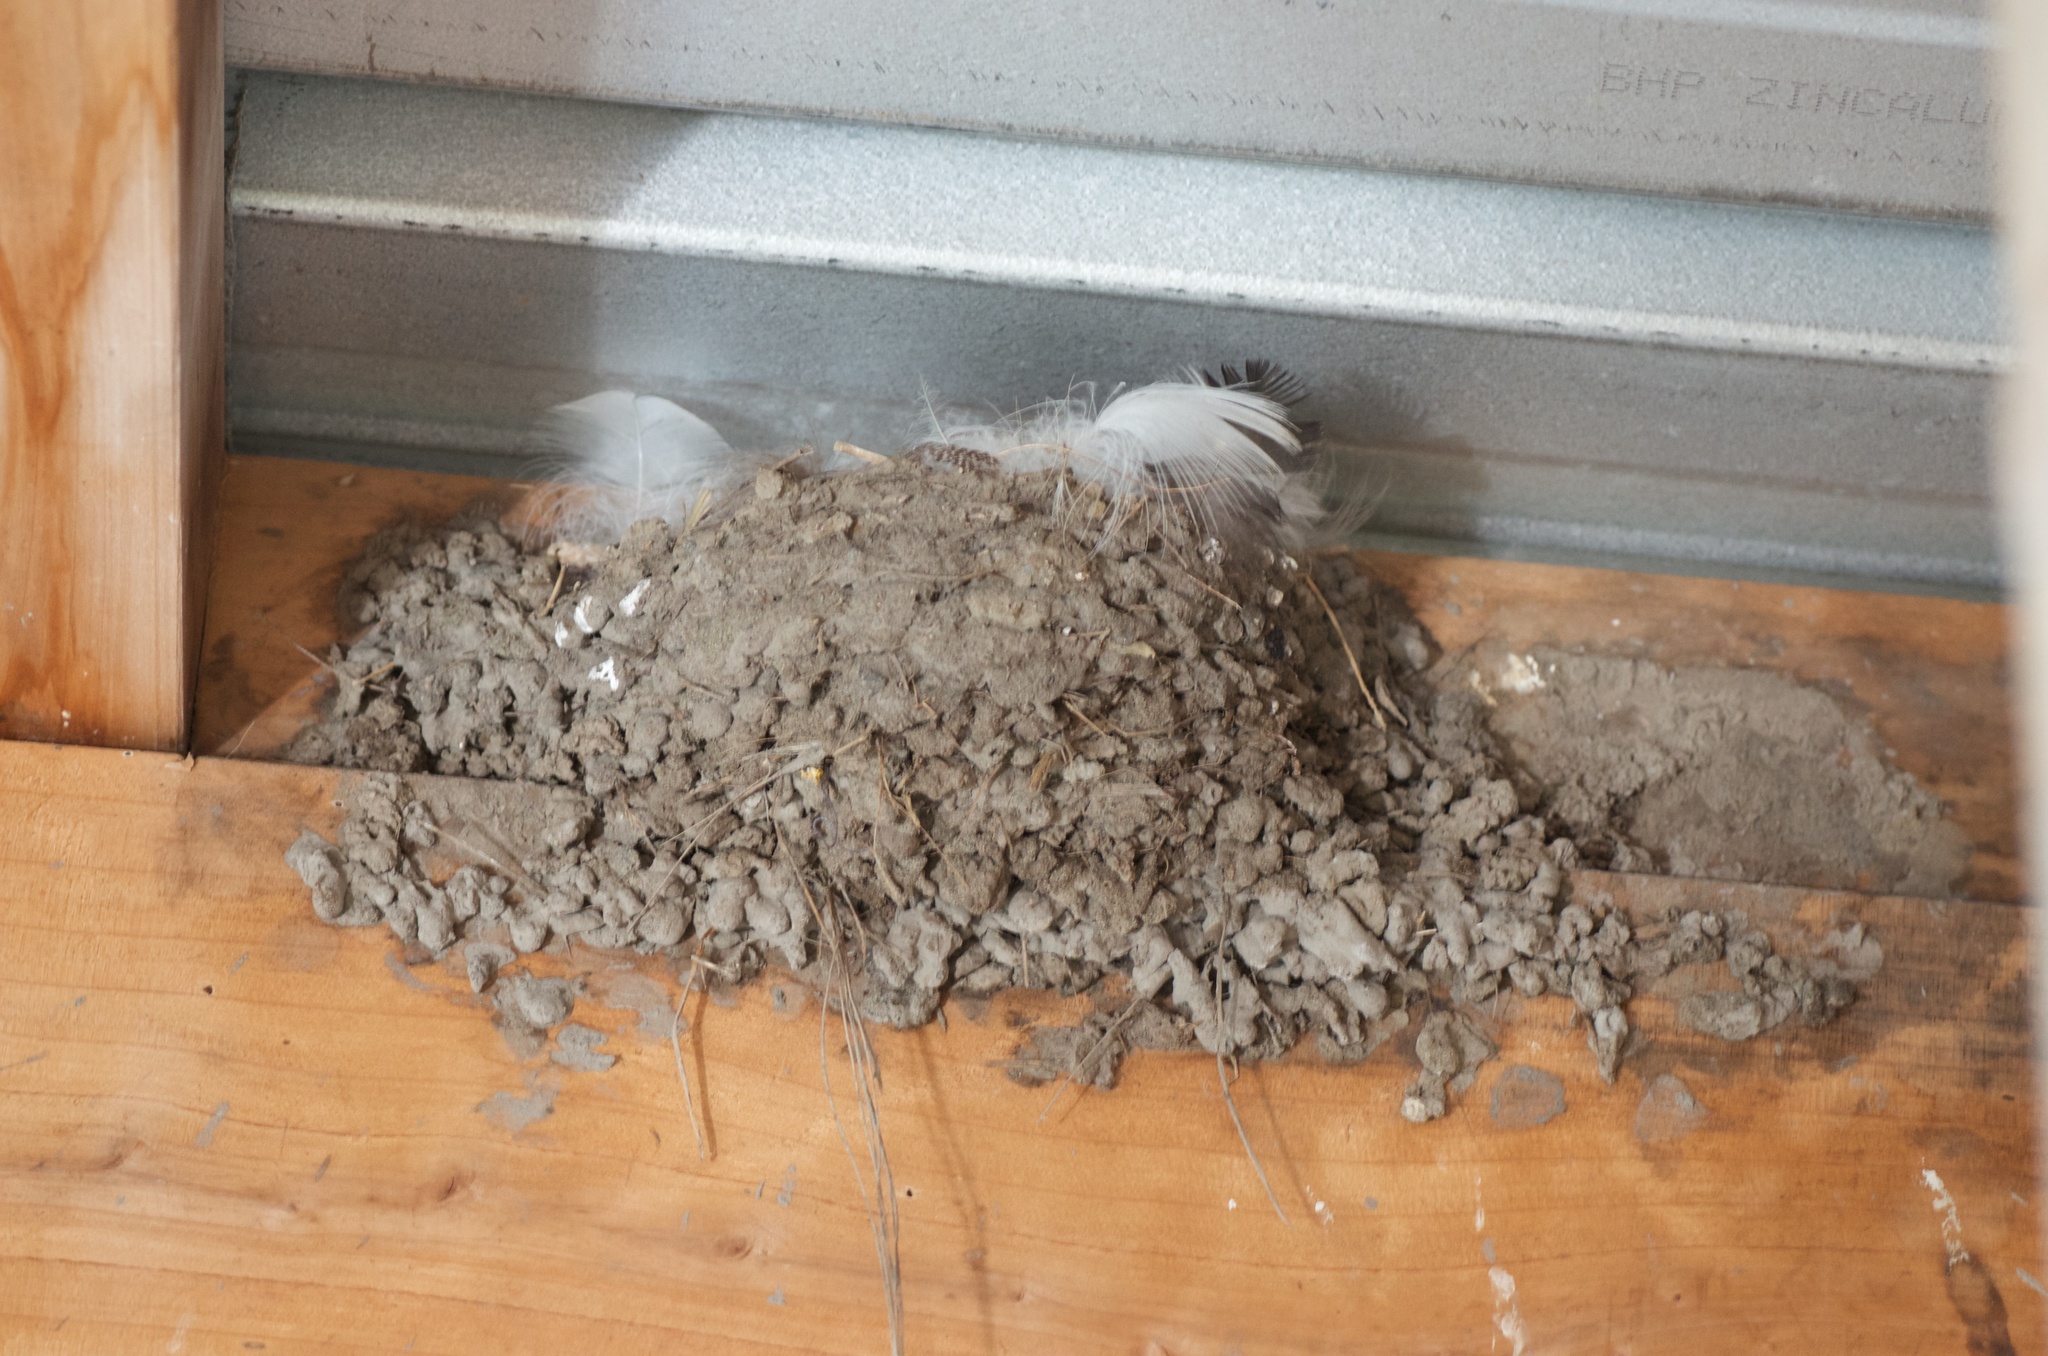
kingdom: Animalia
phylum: Chordata
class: Aves
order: Passeriformes
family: Hirundinidae
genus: Hirundo
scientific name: Hirundo neoxena
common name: Welcome swallow
